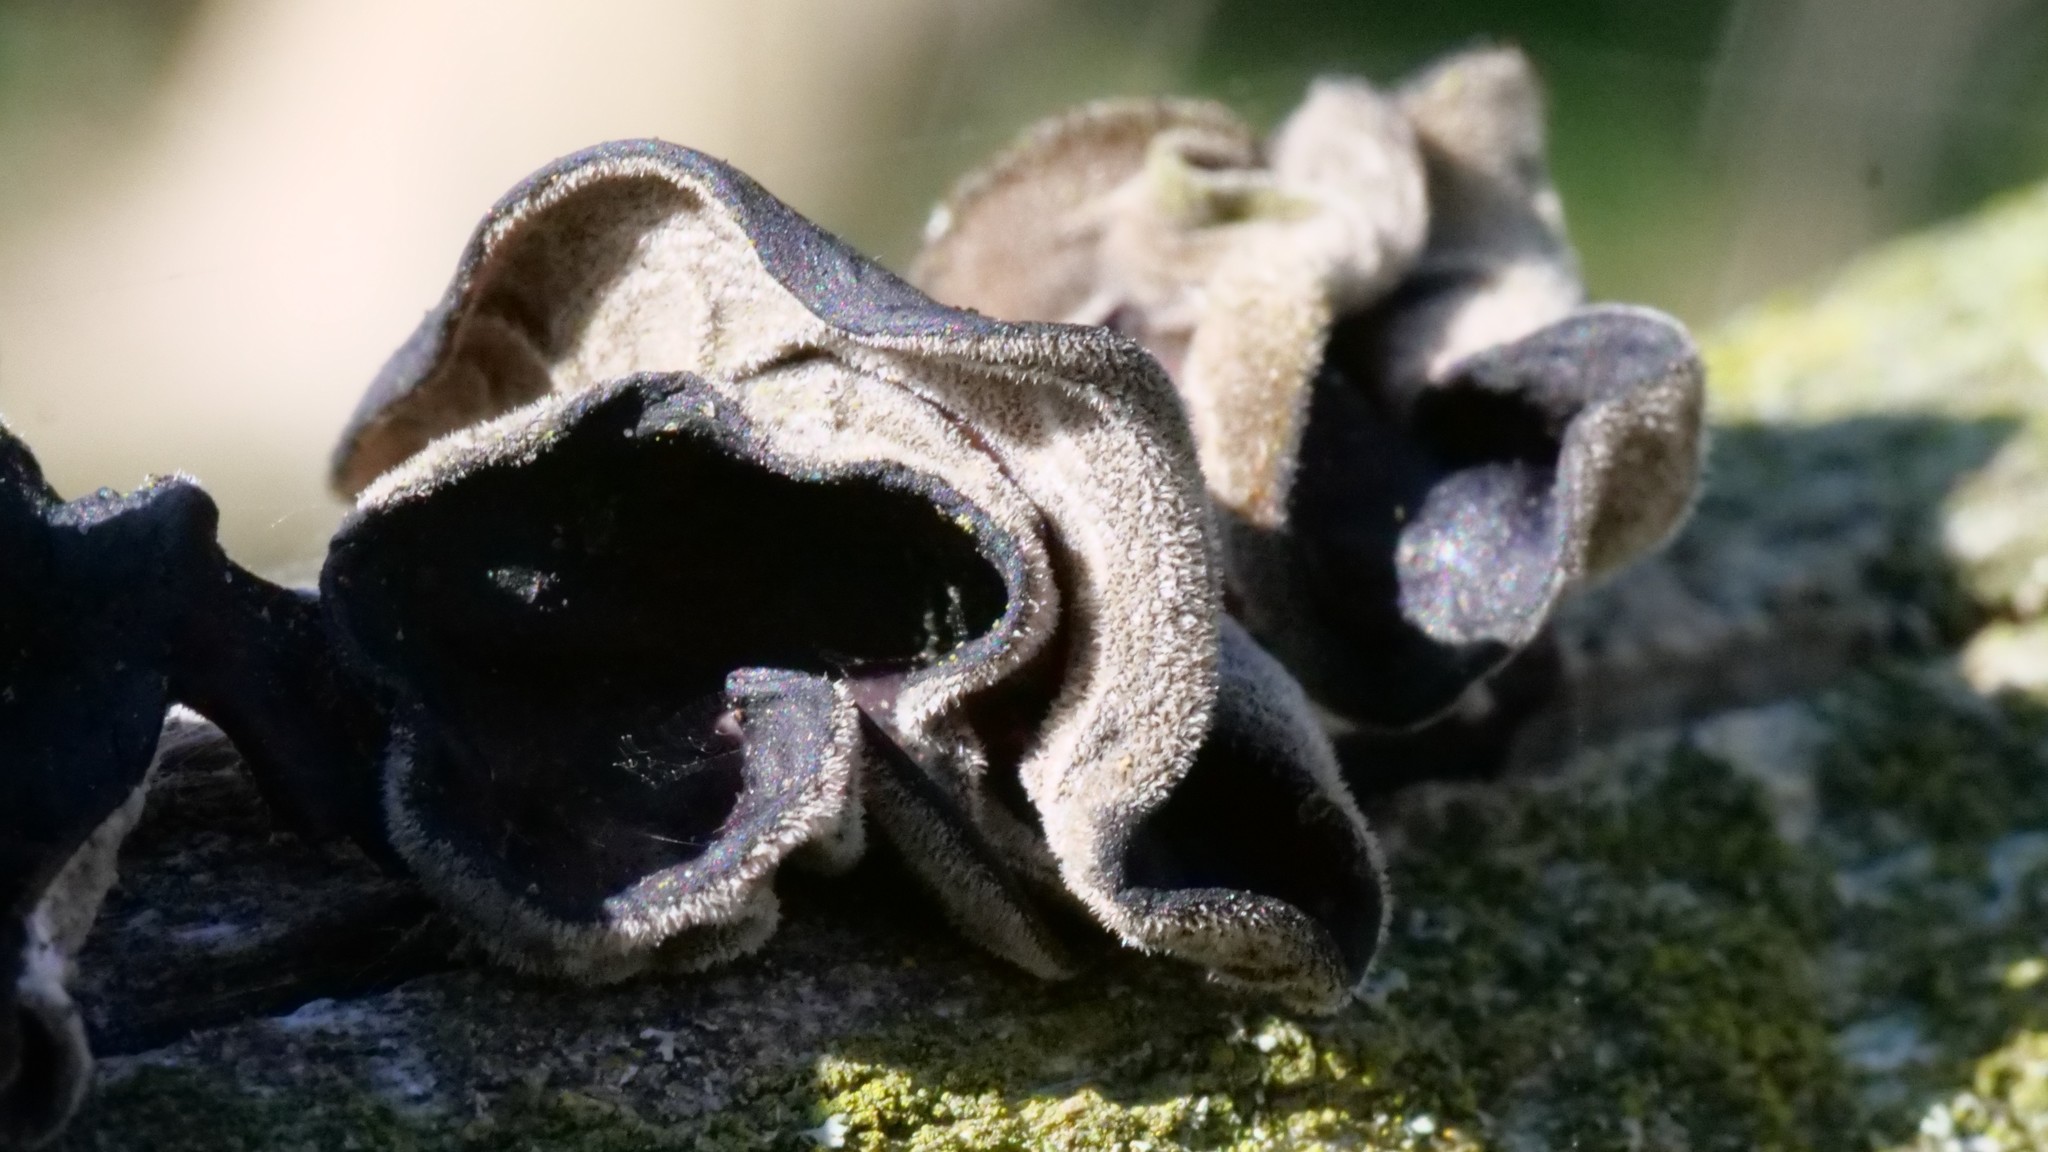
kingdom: Fungi
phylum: Basidiomycota
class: Agaricomycetes
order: Auriculariales
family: Auriculariaceae
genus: Auricularia
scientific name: Auricularia auricula-judae
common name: Jelly ear
